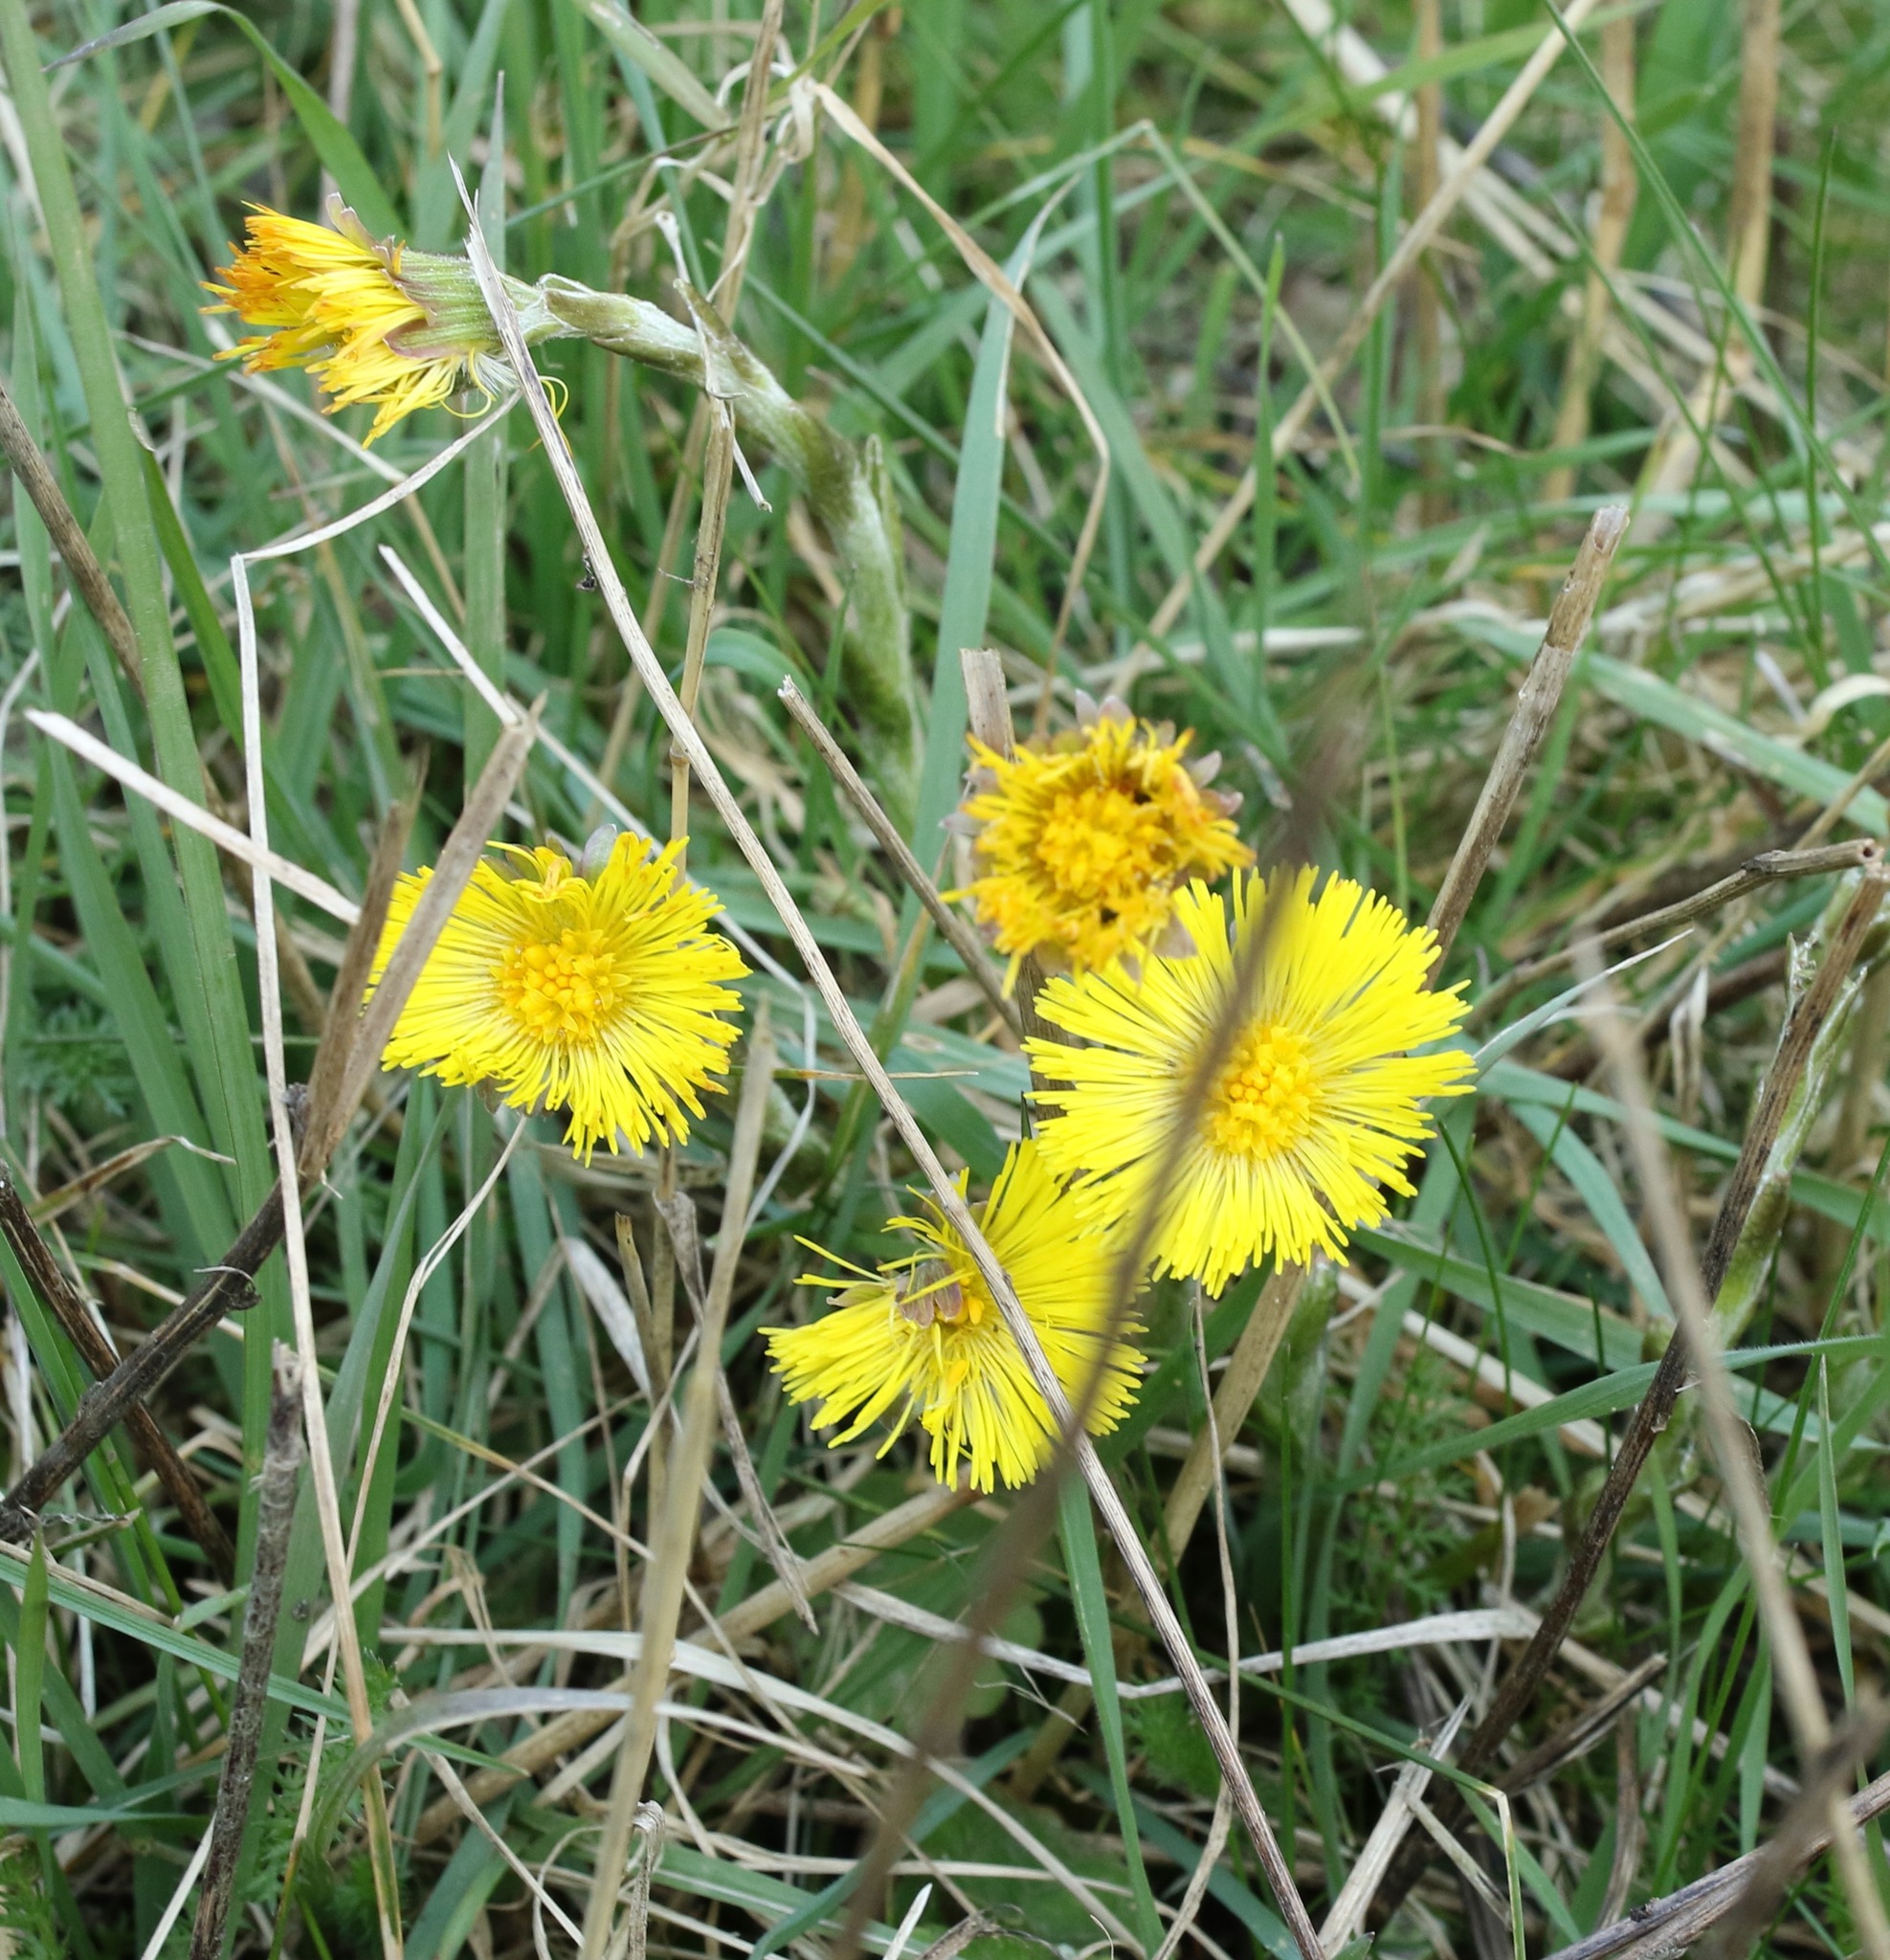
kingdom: Plantae
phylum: Tracheophyta
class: Magnoliopsida
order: Asterales
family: Asteraceae
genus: Tussilago
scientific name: Tussilago farfara
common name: Coltsfoot
